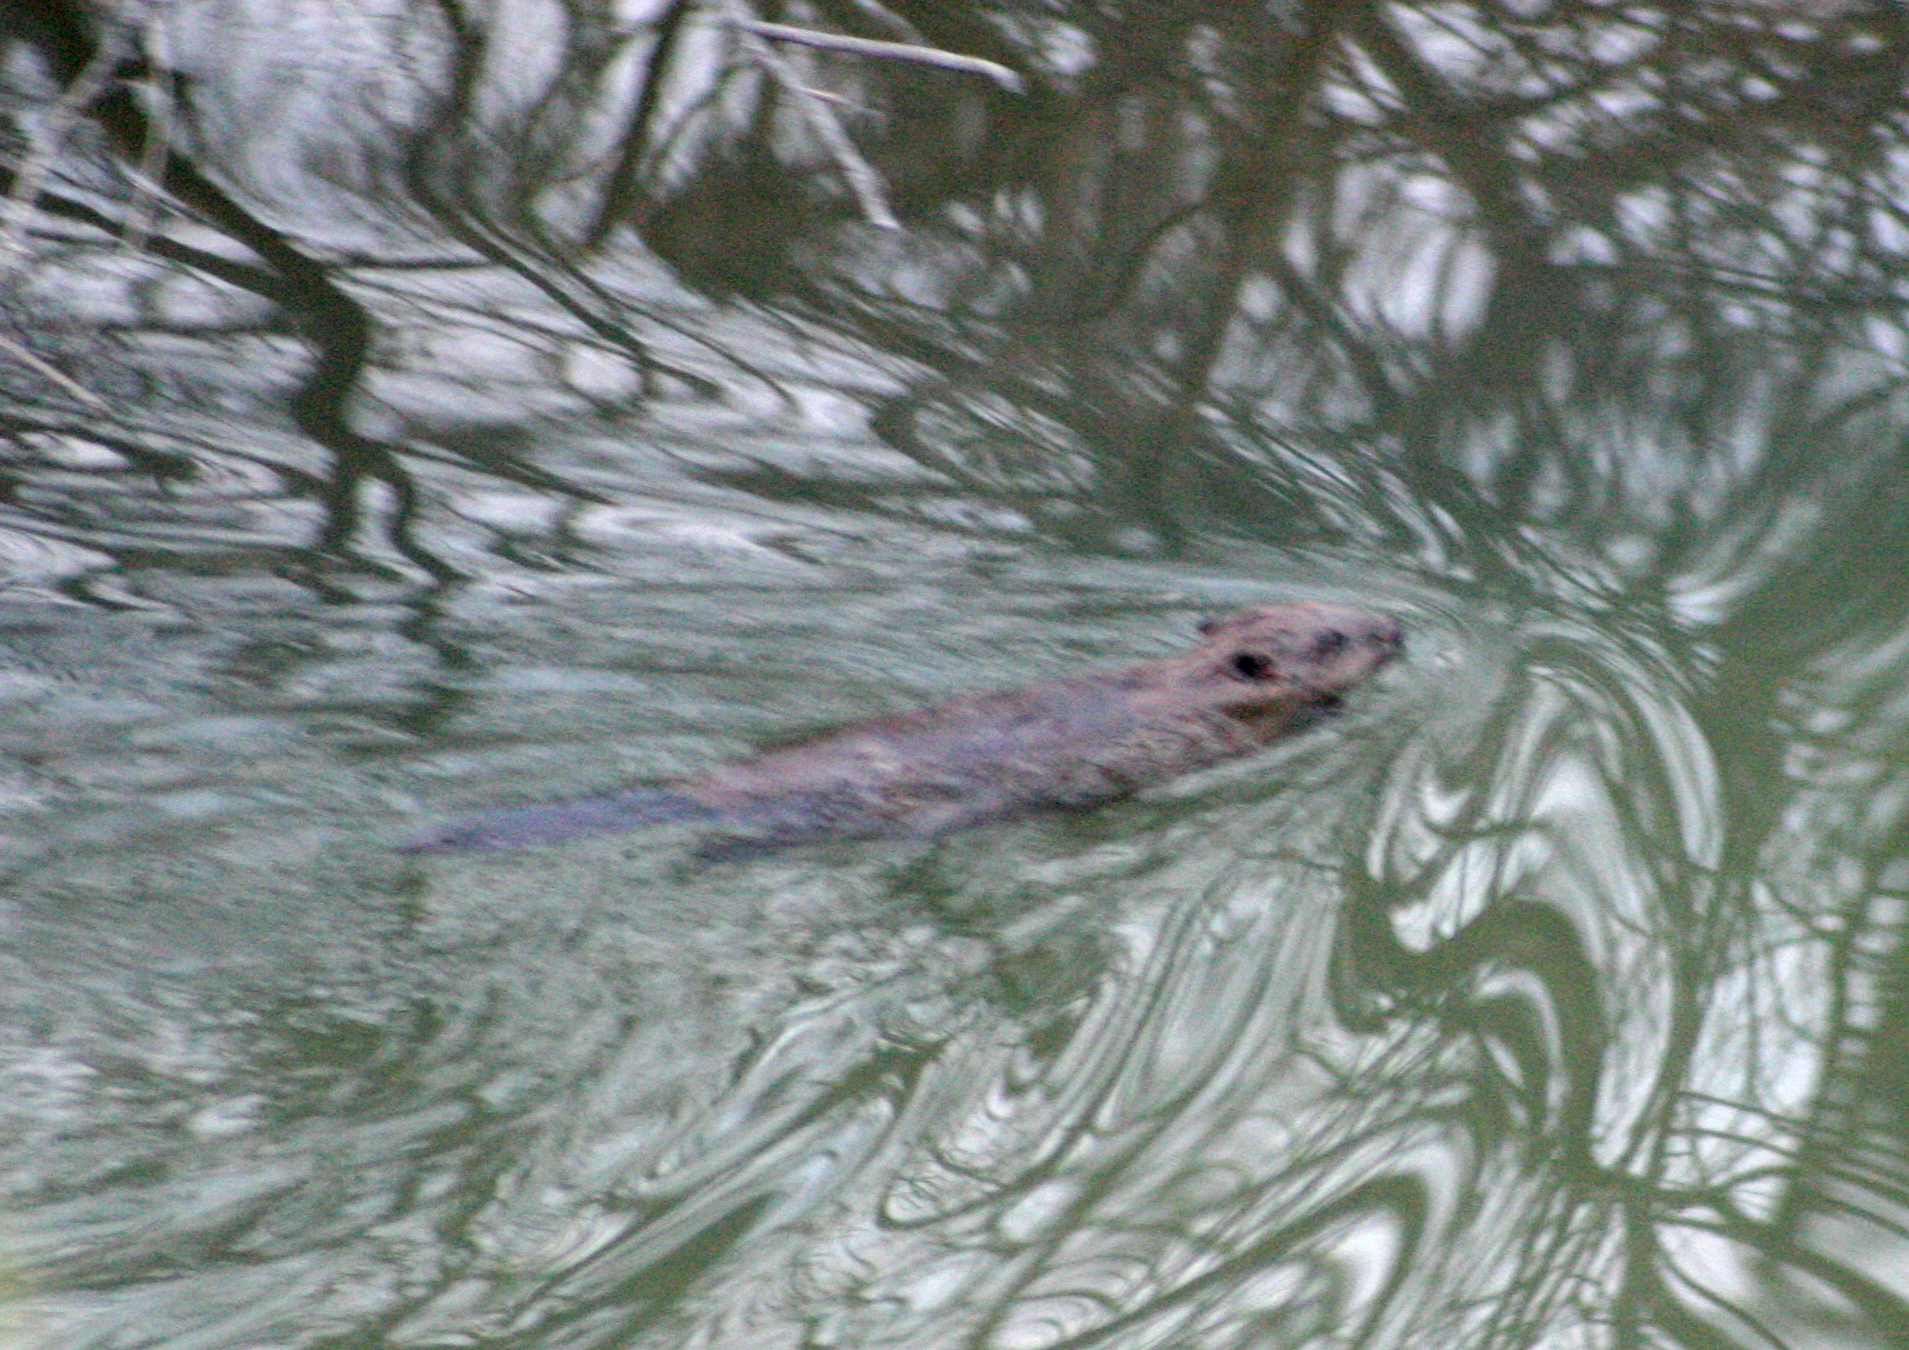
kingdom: Animalia
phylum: Chordata
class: Mammalia
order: Rodentia
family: Castoridae
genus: Castor
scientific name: Castor fiber
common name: Eurasian beaver
